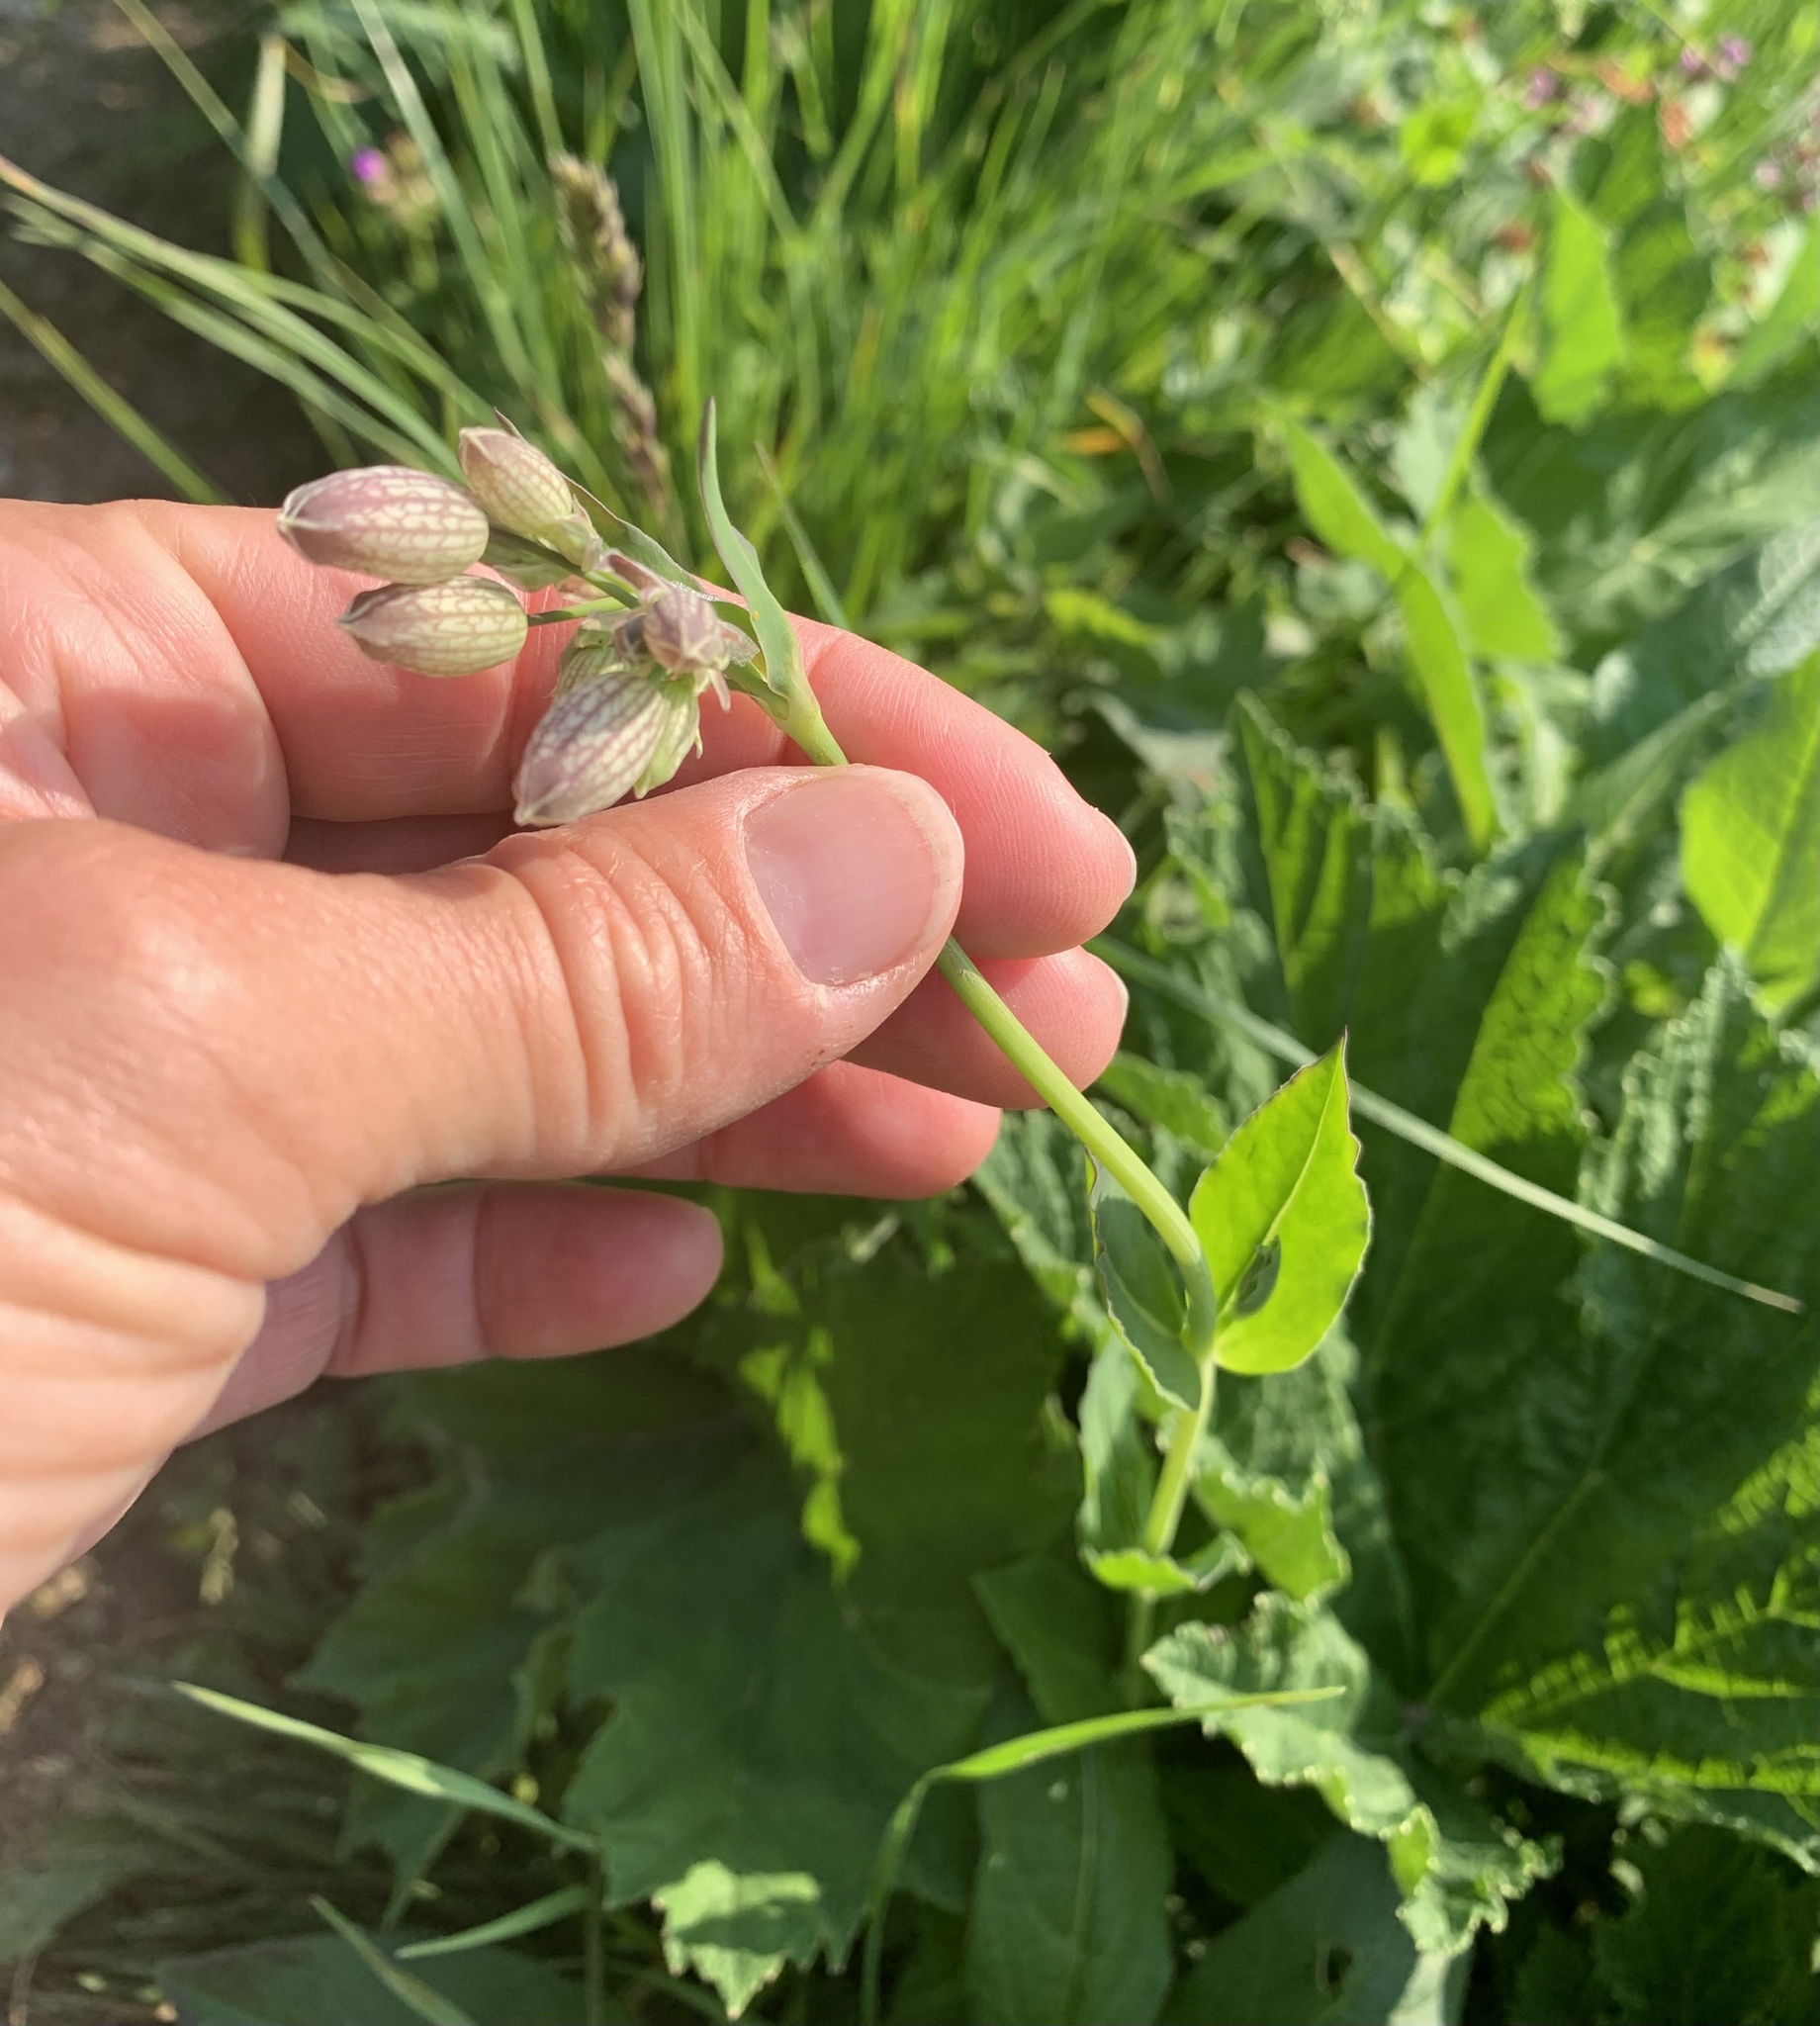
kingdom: Plantae
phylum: Tracheophyta
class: Magnoliopsida
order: Caryophyllales
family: Caryophyllaceae
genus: Silene
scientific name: Silene vulgaris
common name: Bladder campion
